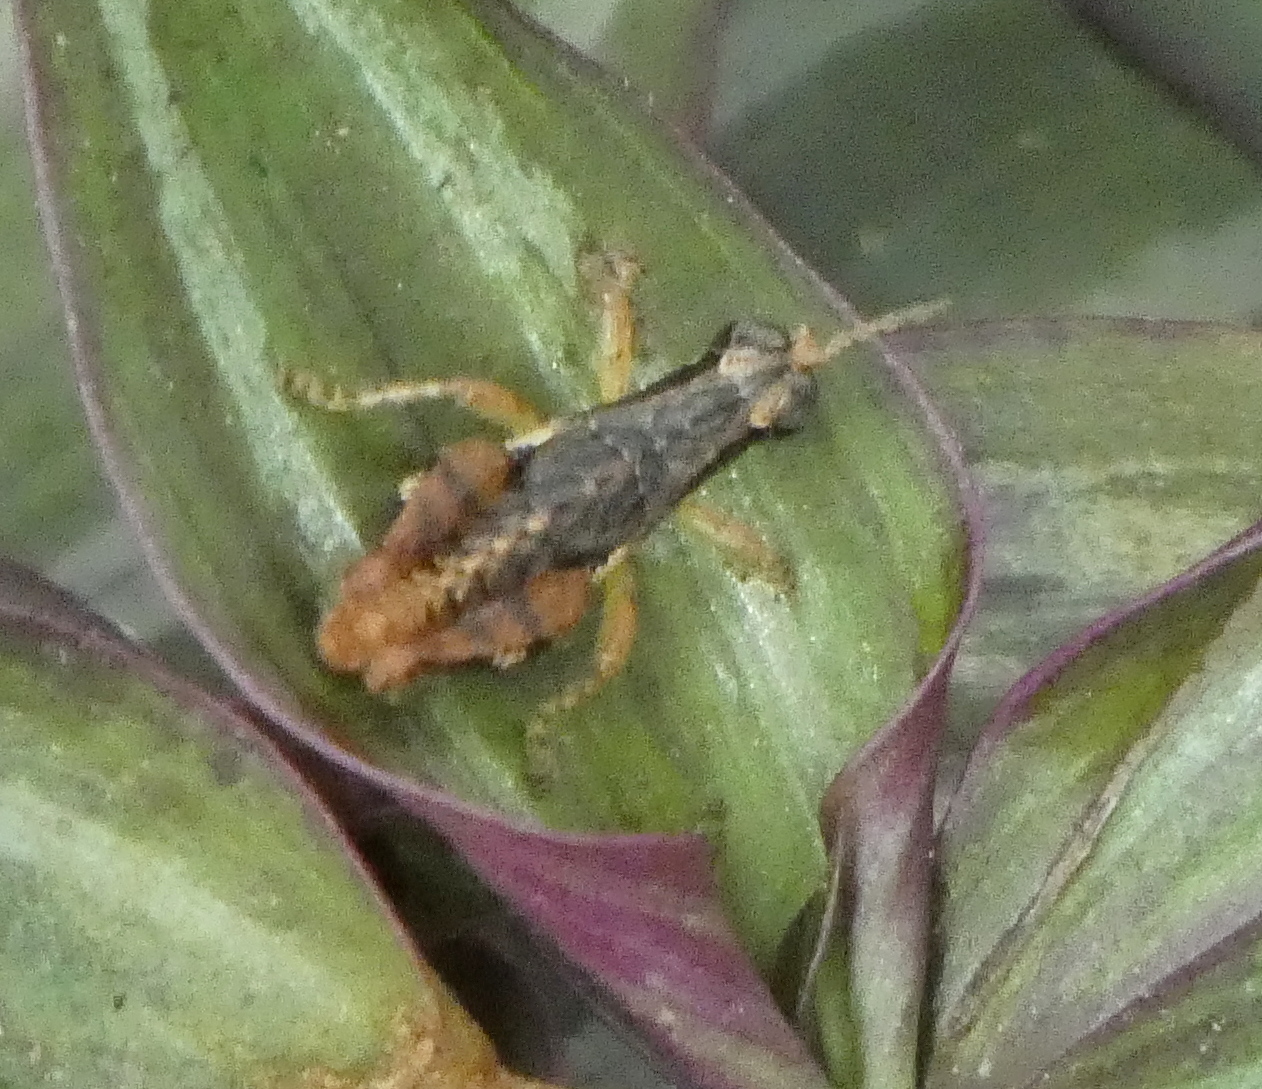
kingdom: Animalia
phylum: Arthropoda
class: Insecta
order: Orthoptera
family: Acrididae
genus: Eujivarus
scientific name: Eujivarus meridionalis
